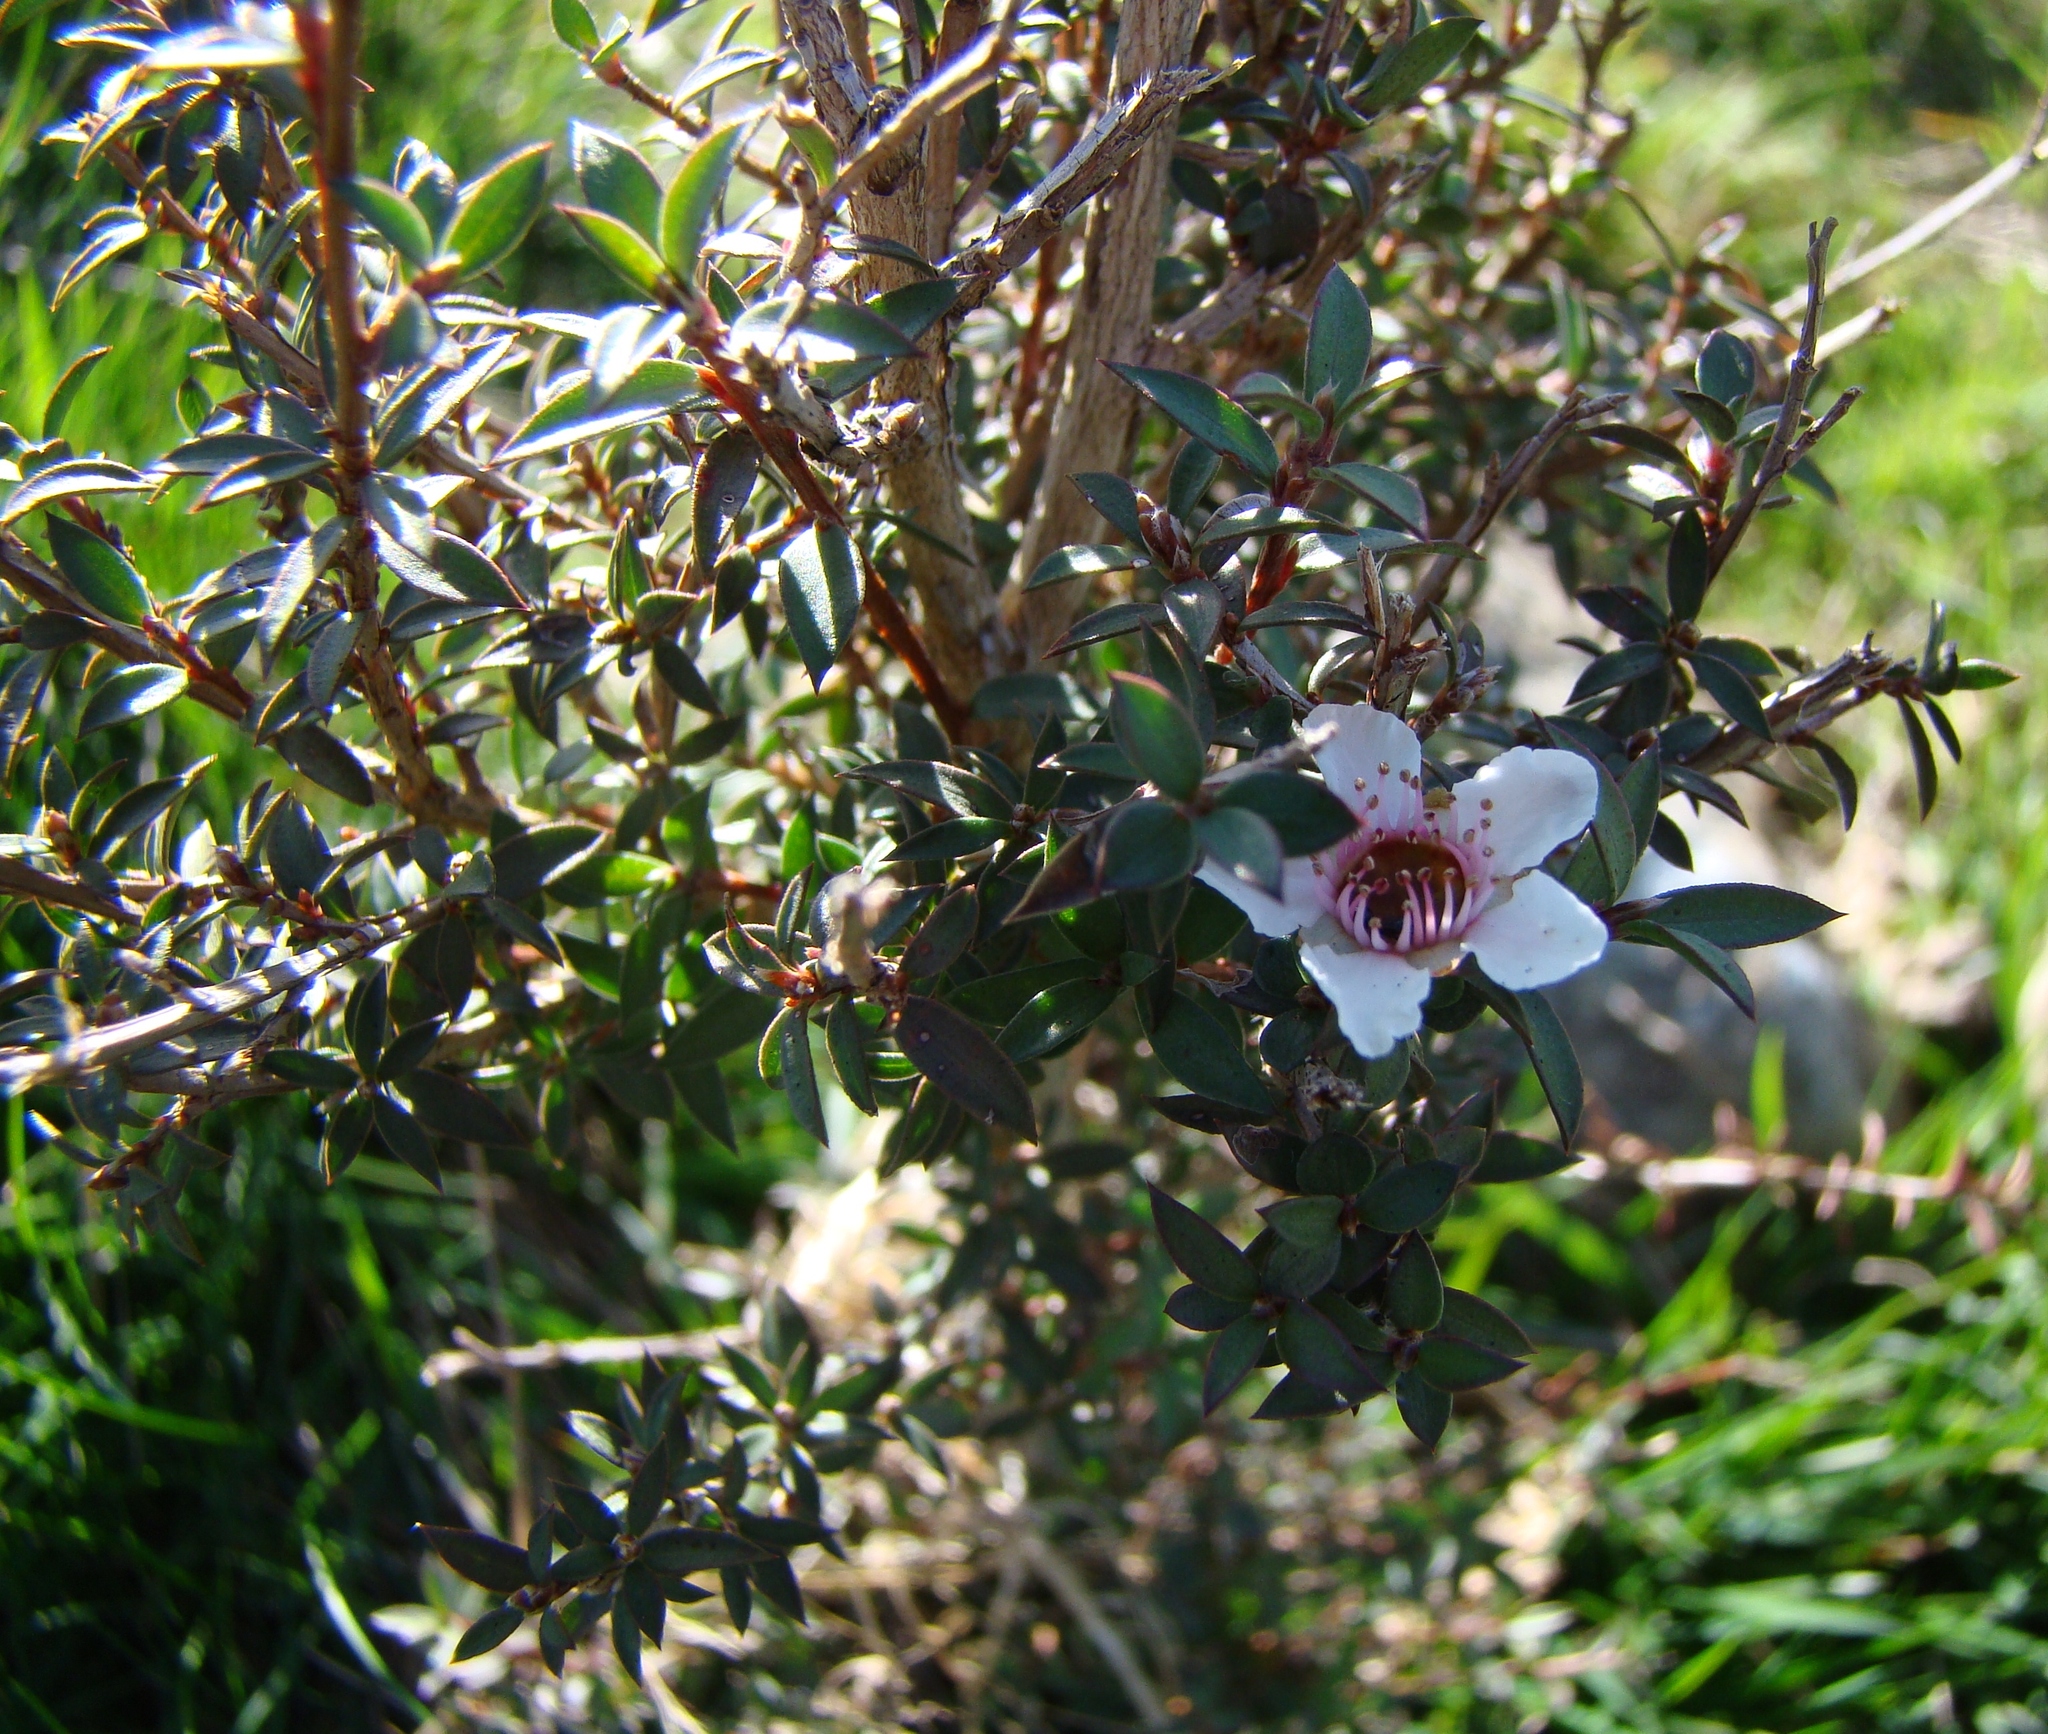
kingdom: Plantae
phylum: Tracheophyta
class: Magnoliopsida
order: Myrtales
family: Myrtaceae
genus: Leptospermum
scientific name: Leptospermum scoparium
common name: Broom tea-tree
